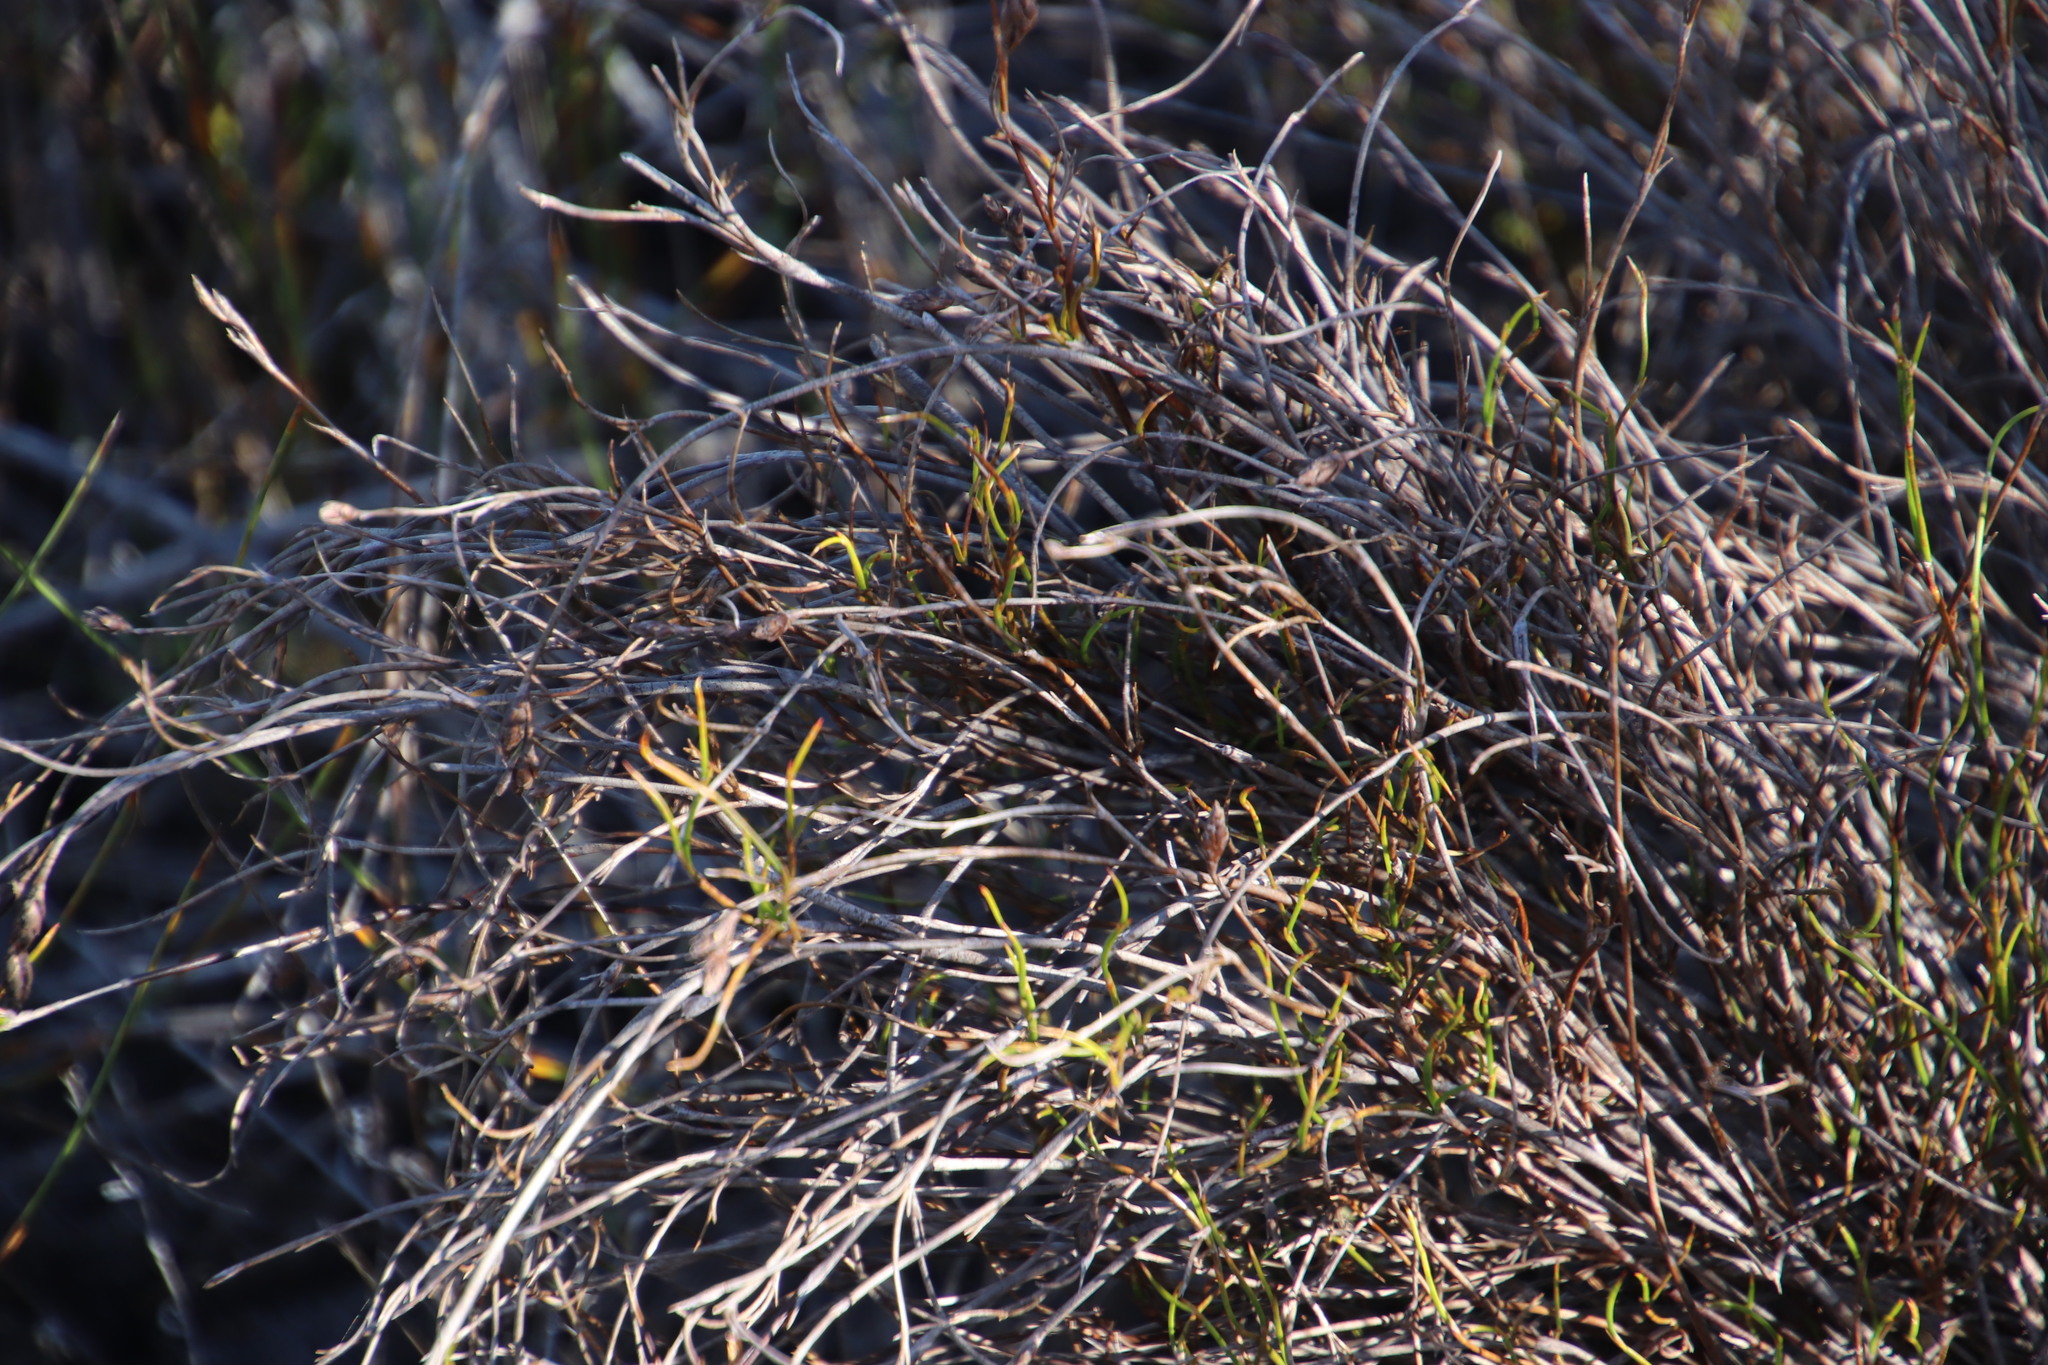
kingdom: Plantae
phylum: Tracheophyta
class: Liliopsida
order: Poales
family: Restionaceae
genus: Restio
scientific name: Restio capensis
